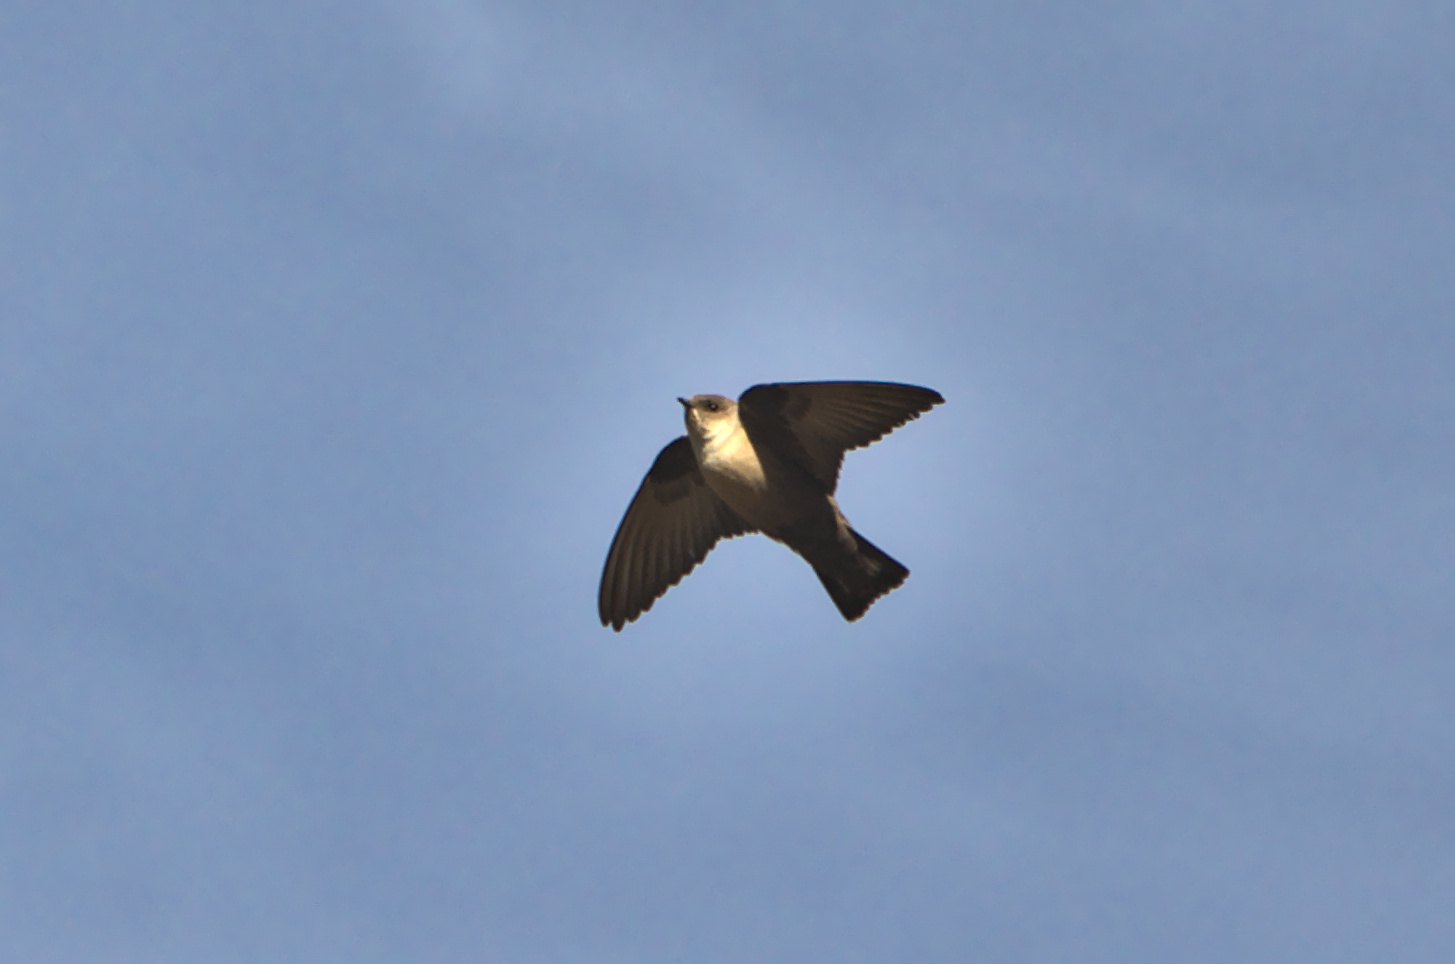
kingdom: Animalia
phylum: Chordata
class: Aves
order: Passeriformes
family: Hirundinidae
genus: Ptyonoprogne
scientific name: Ptyonoprogne rupestris
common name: Eurasian crag martin
